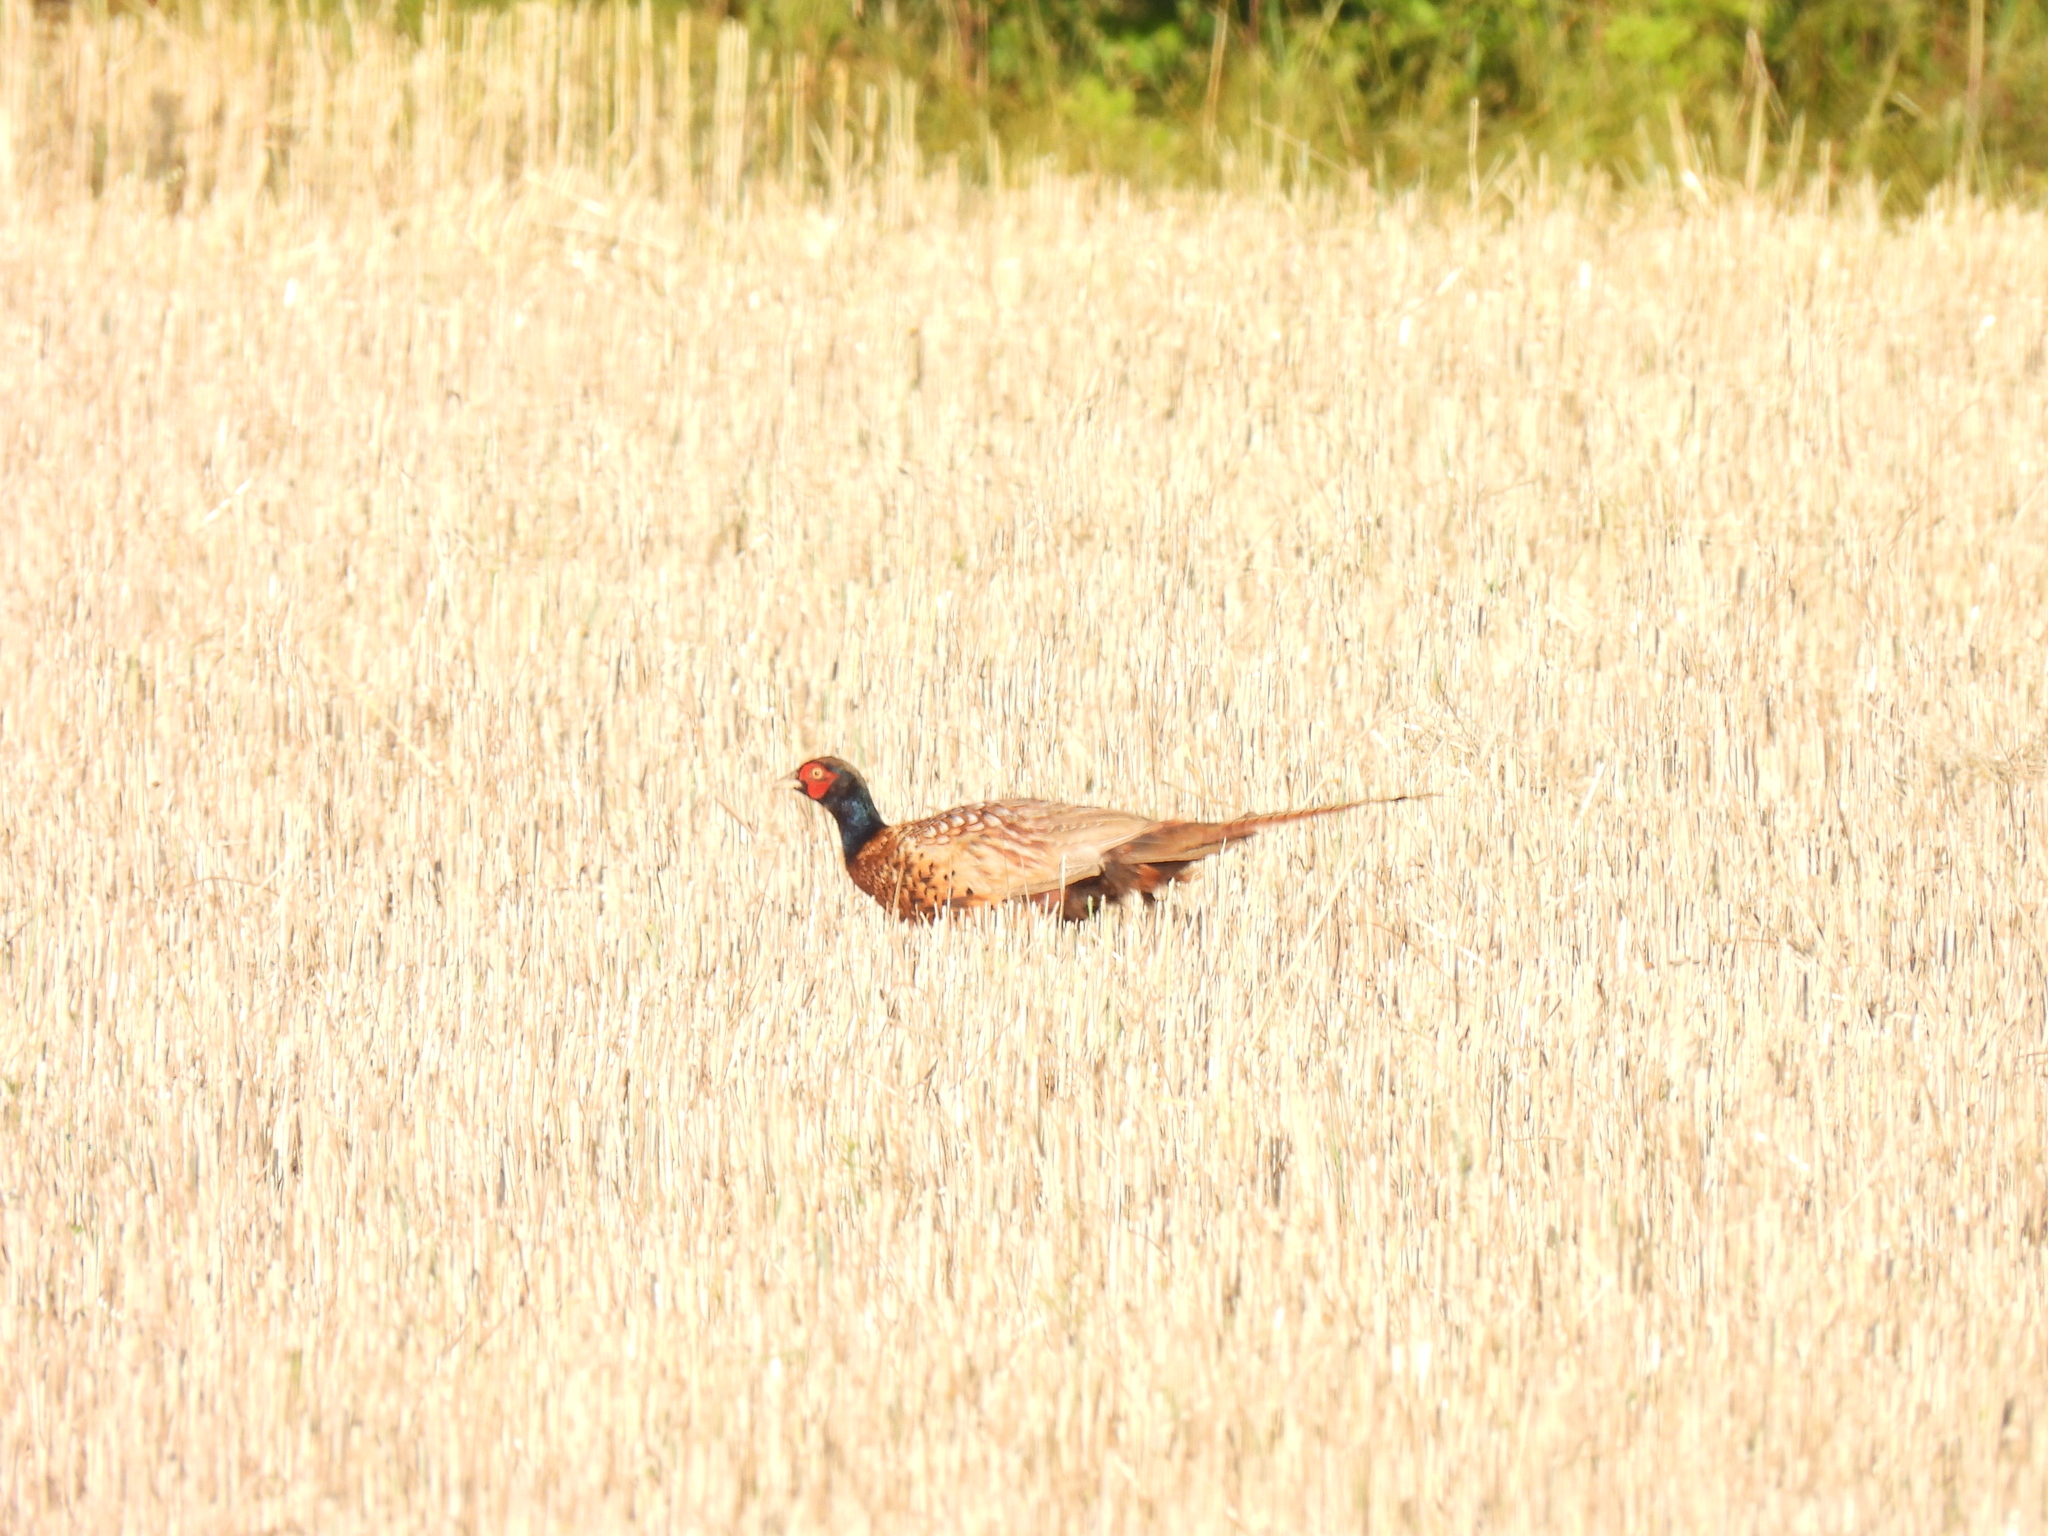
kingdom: Animalia
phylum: Chordata
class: Aves
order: Galliformes
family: Phasianidae
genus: Phasianus
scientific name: Phasianus colchicus
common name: Common pheasant
